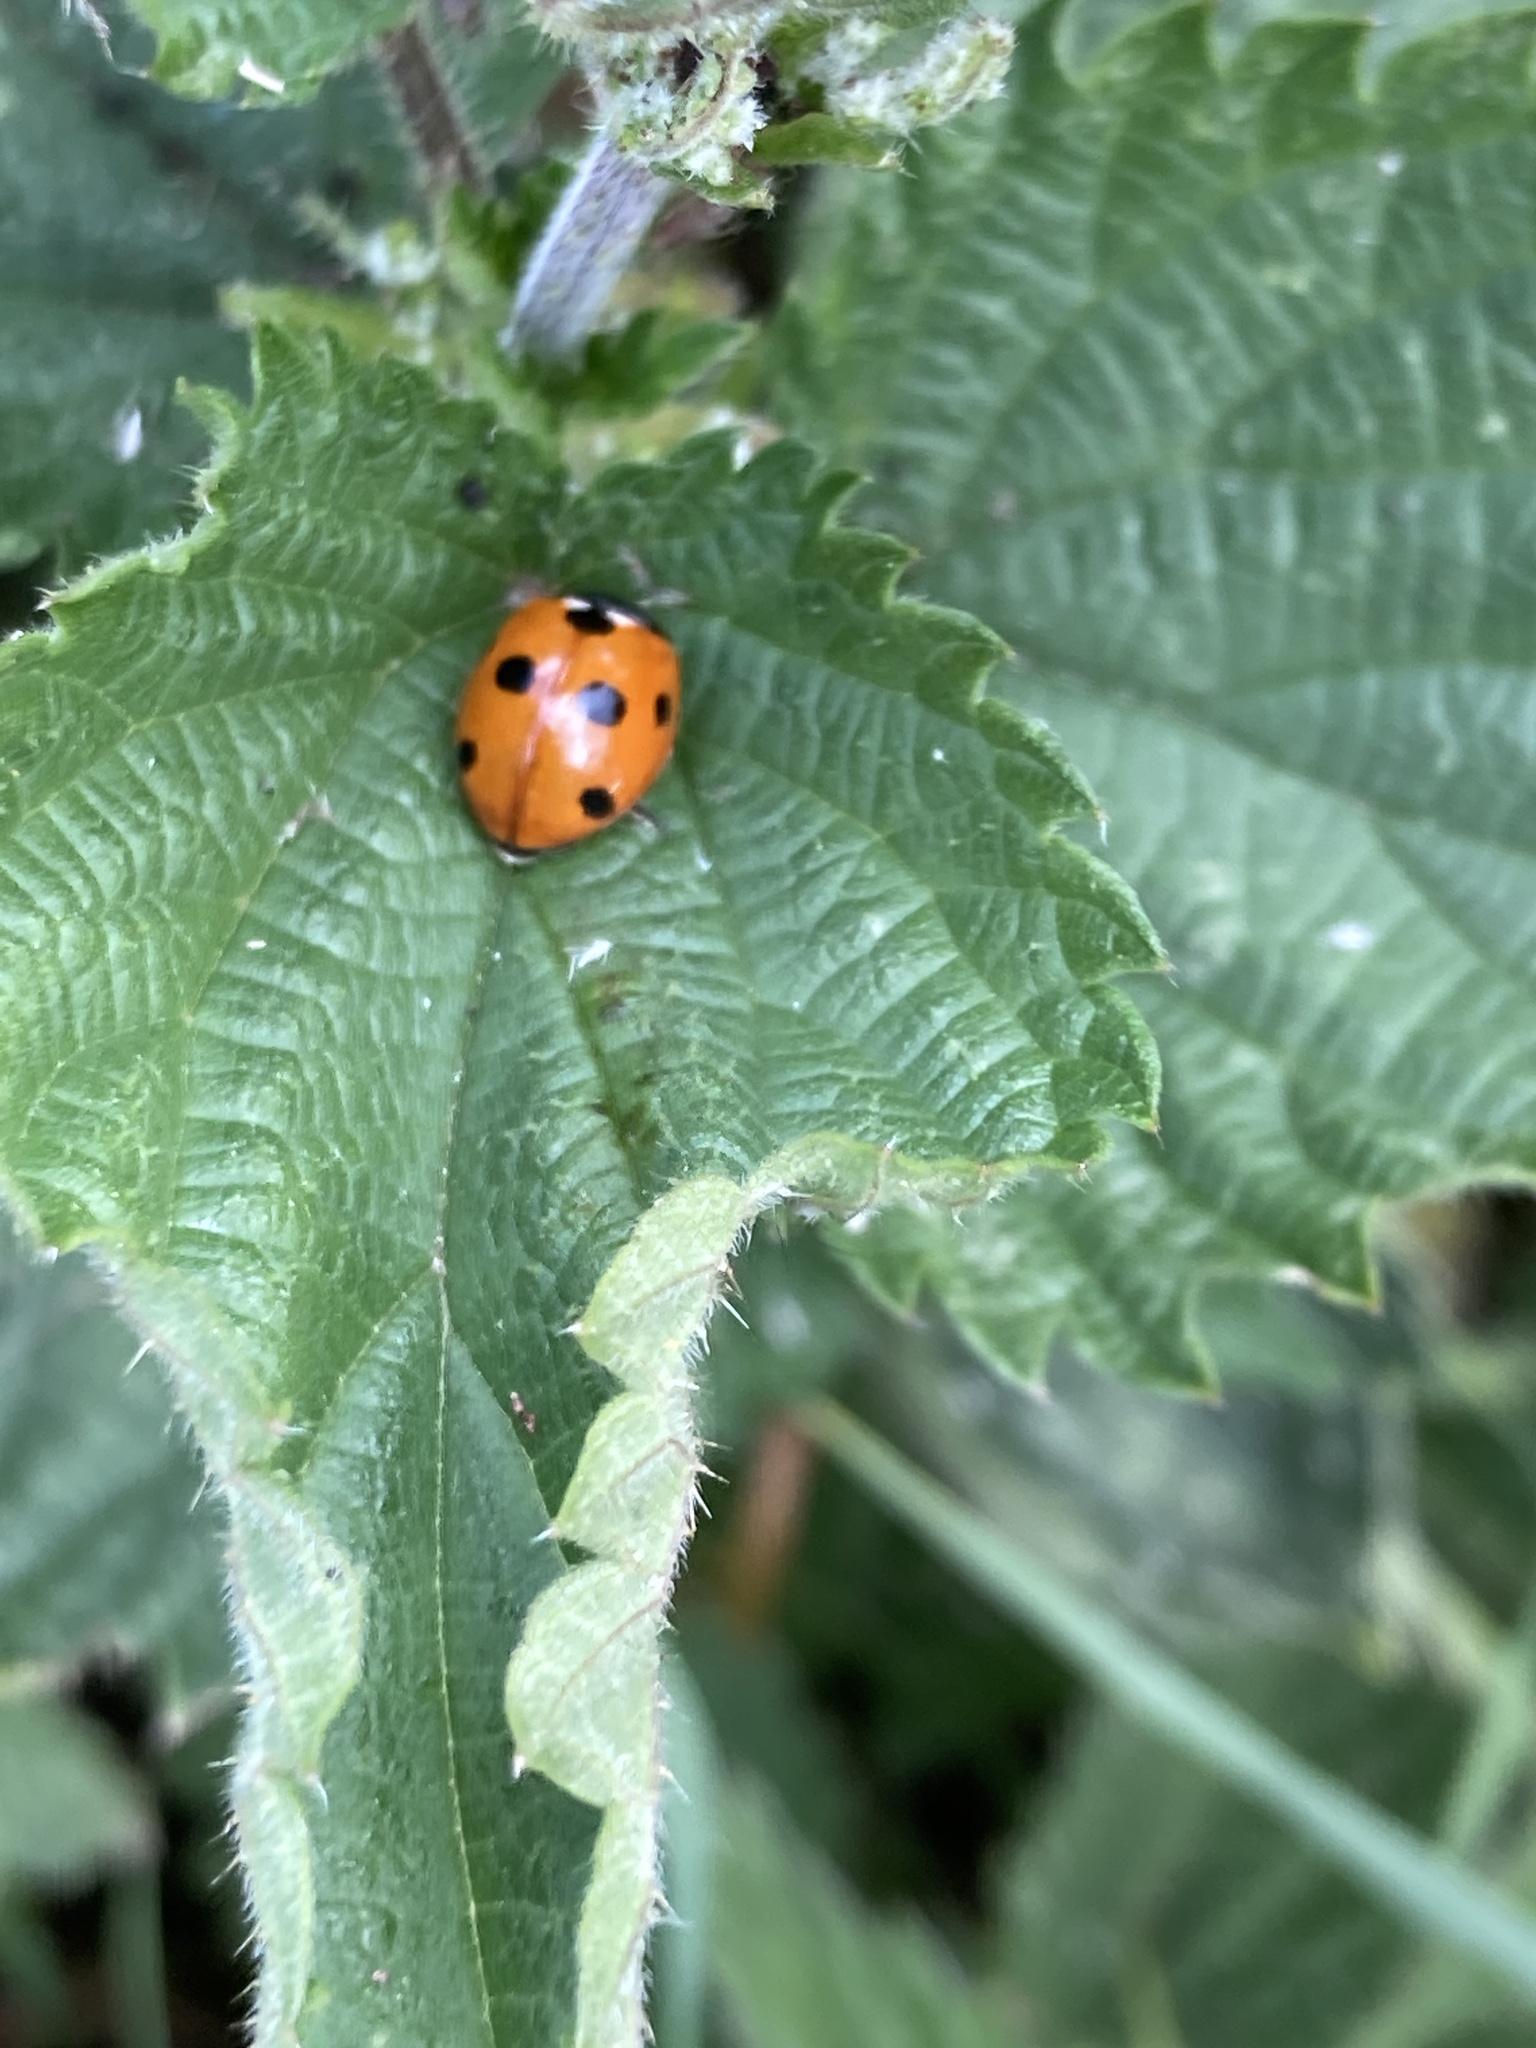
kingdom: Animalia
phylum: Arthropoda
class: Insecta
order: Coleoptera
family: Coccinellidae
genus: Coccinella
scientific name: Coccinella septempunctata
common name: Sevenspotted lady beetle
